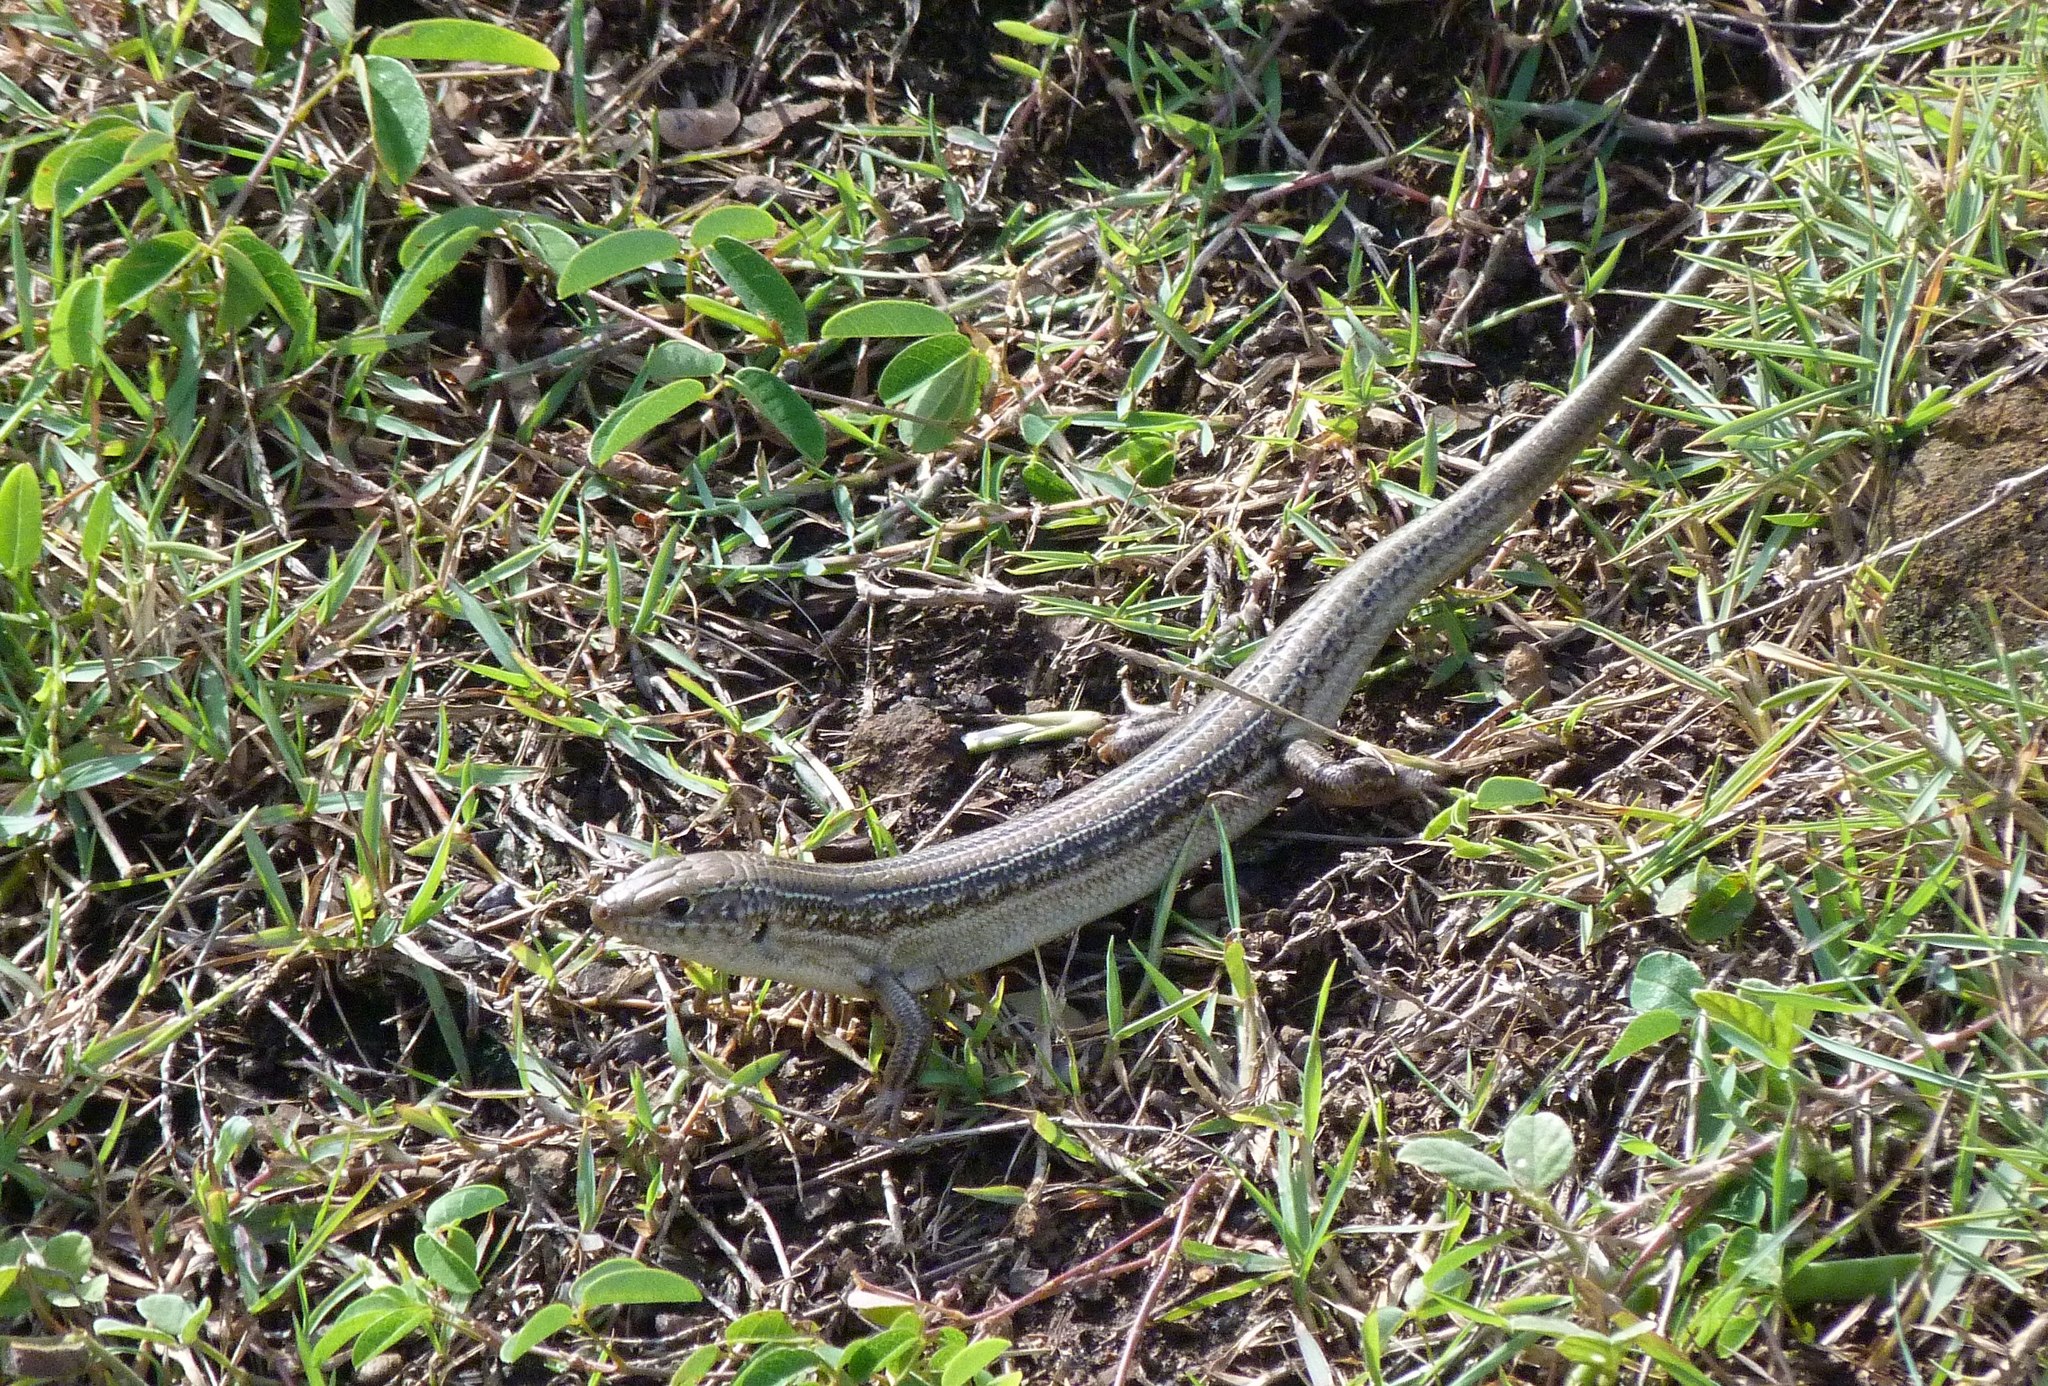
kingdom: Animalia
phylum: Chordata
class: Squamata
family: Scincidae
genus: Ctenotus
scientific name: Ctenotus robustus
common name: Robust ctenotus
